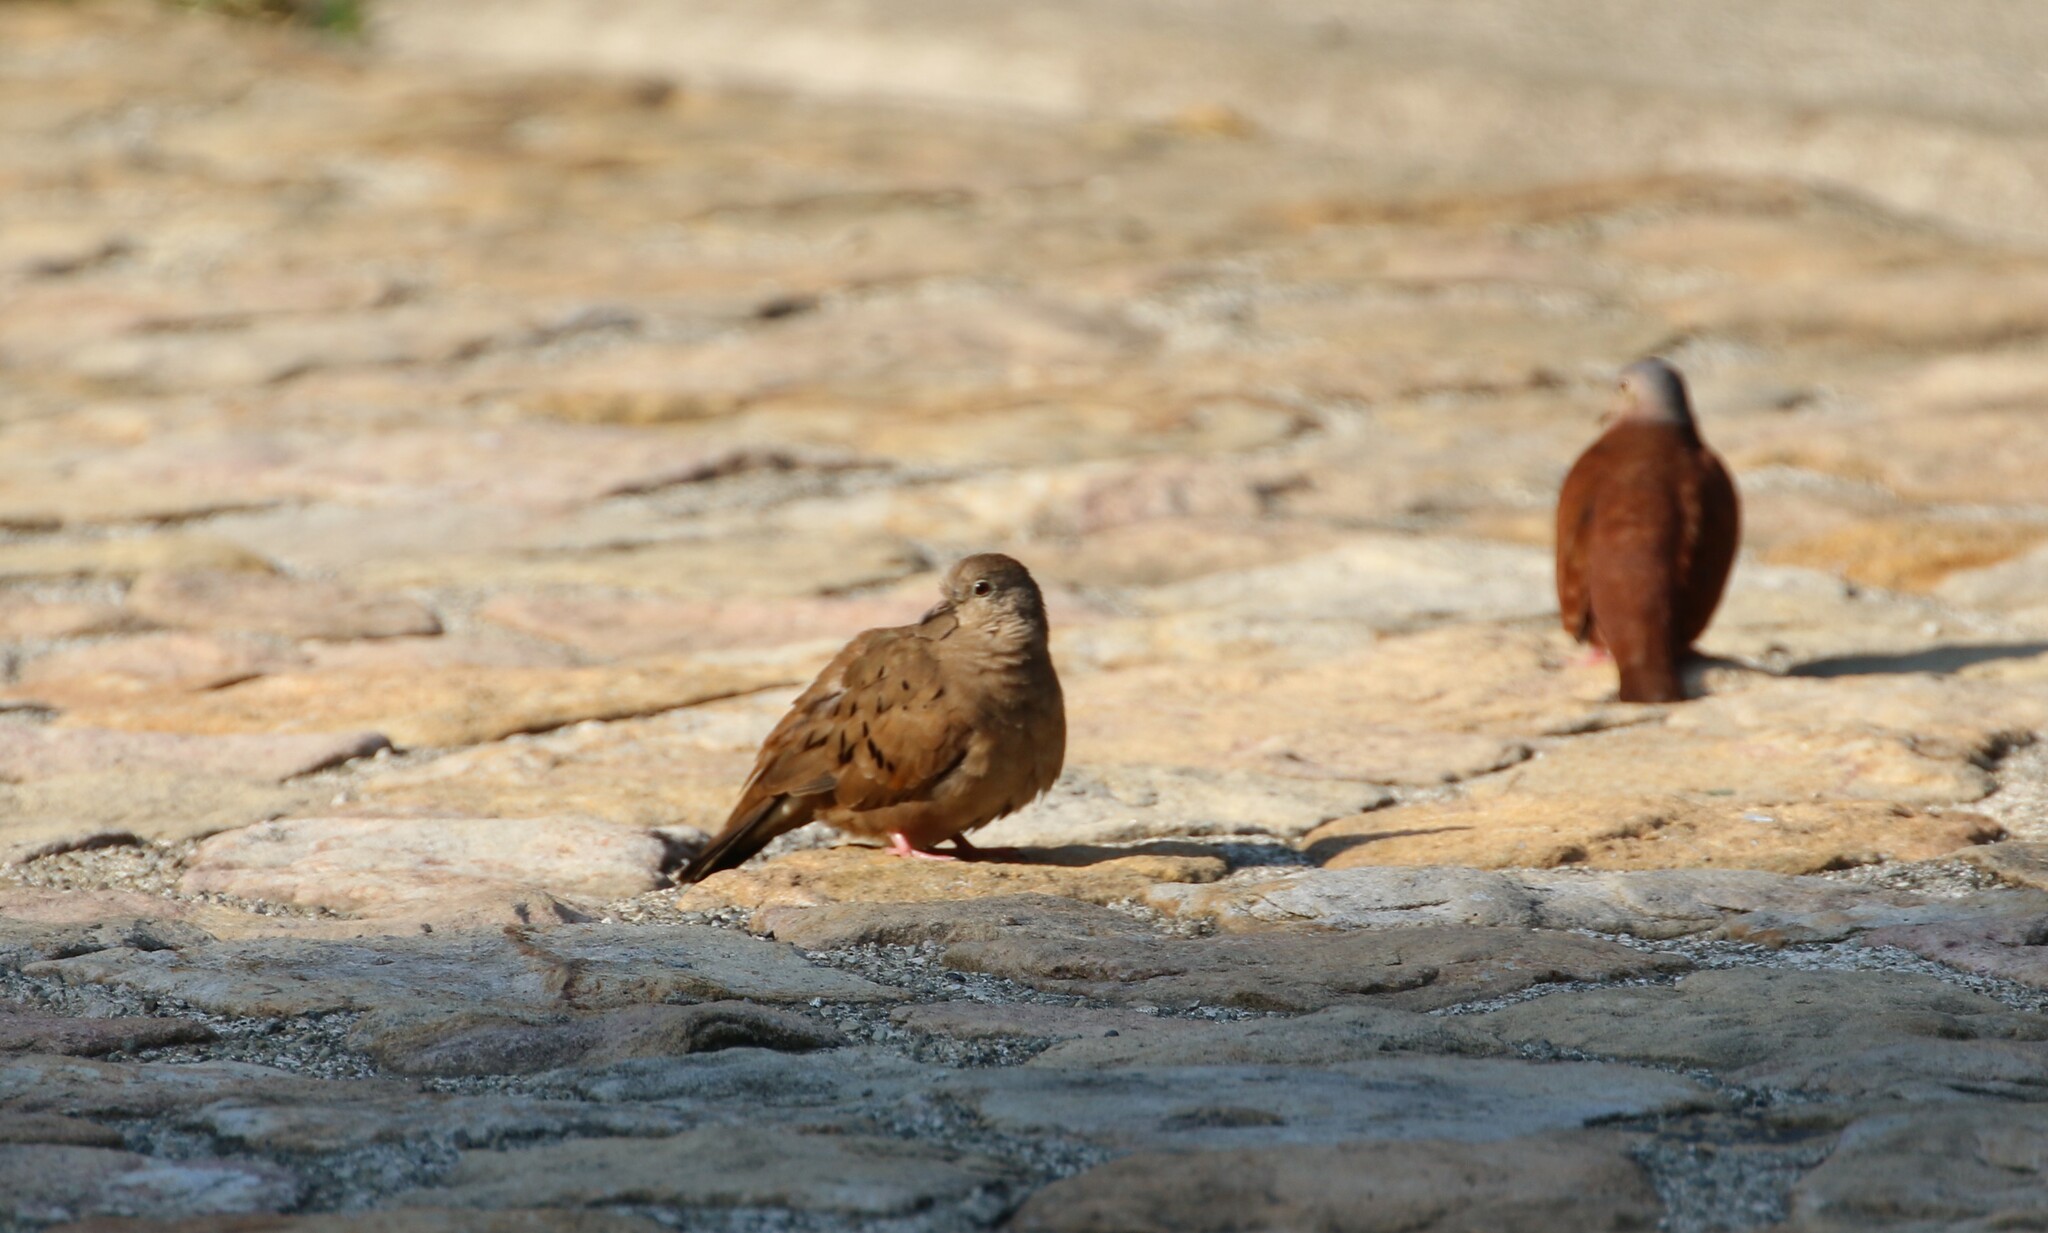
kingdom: Animalia
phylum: Chordata
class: Aves
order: Columbiformes
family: Columbidae
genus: Columbina
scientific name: Columbina talpacoti
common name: Ruddy ground dove
